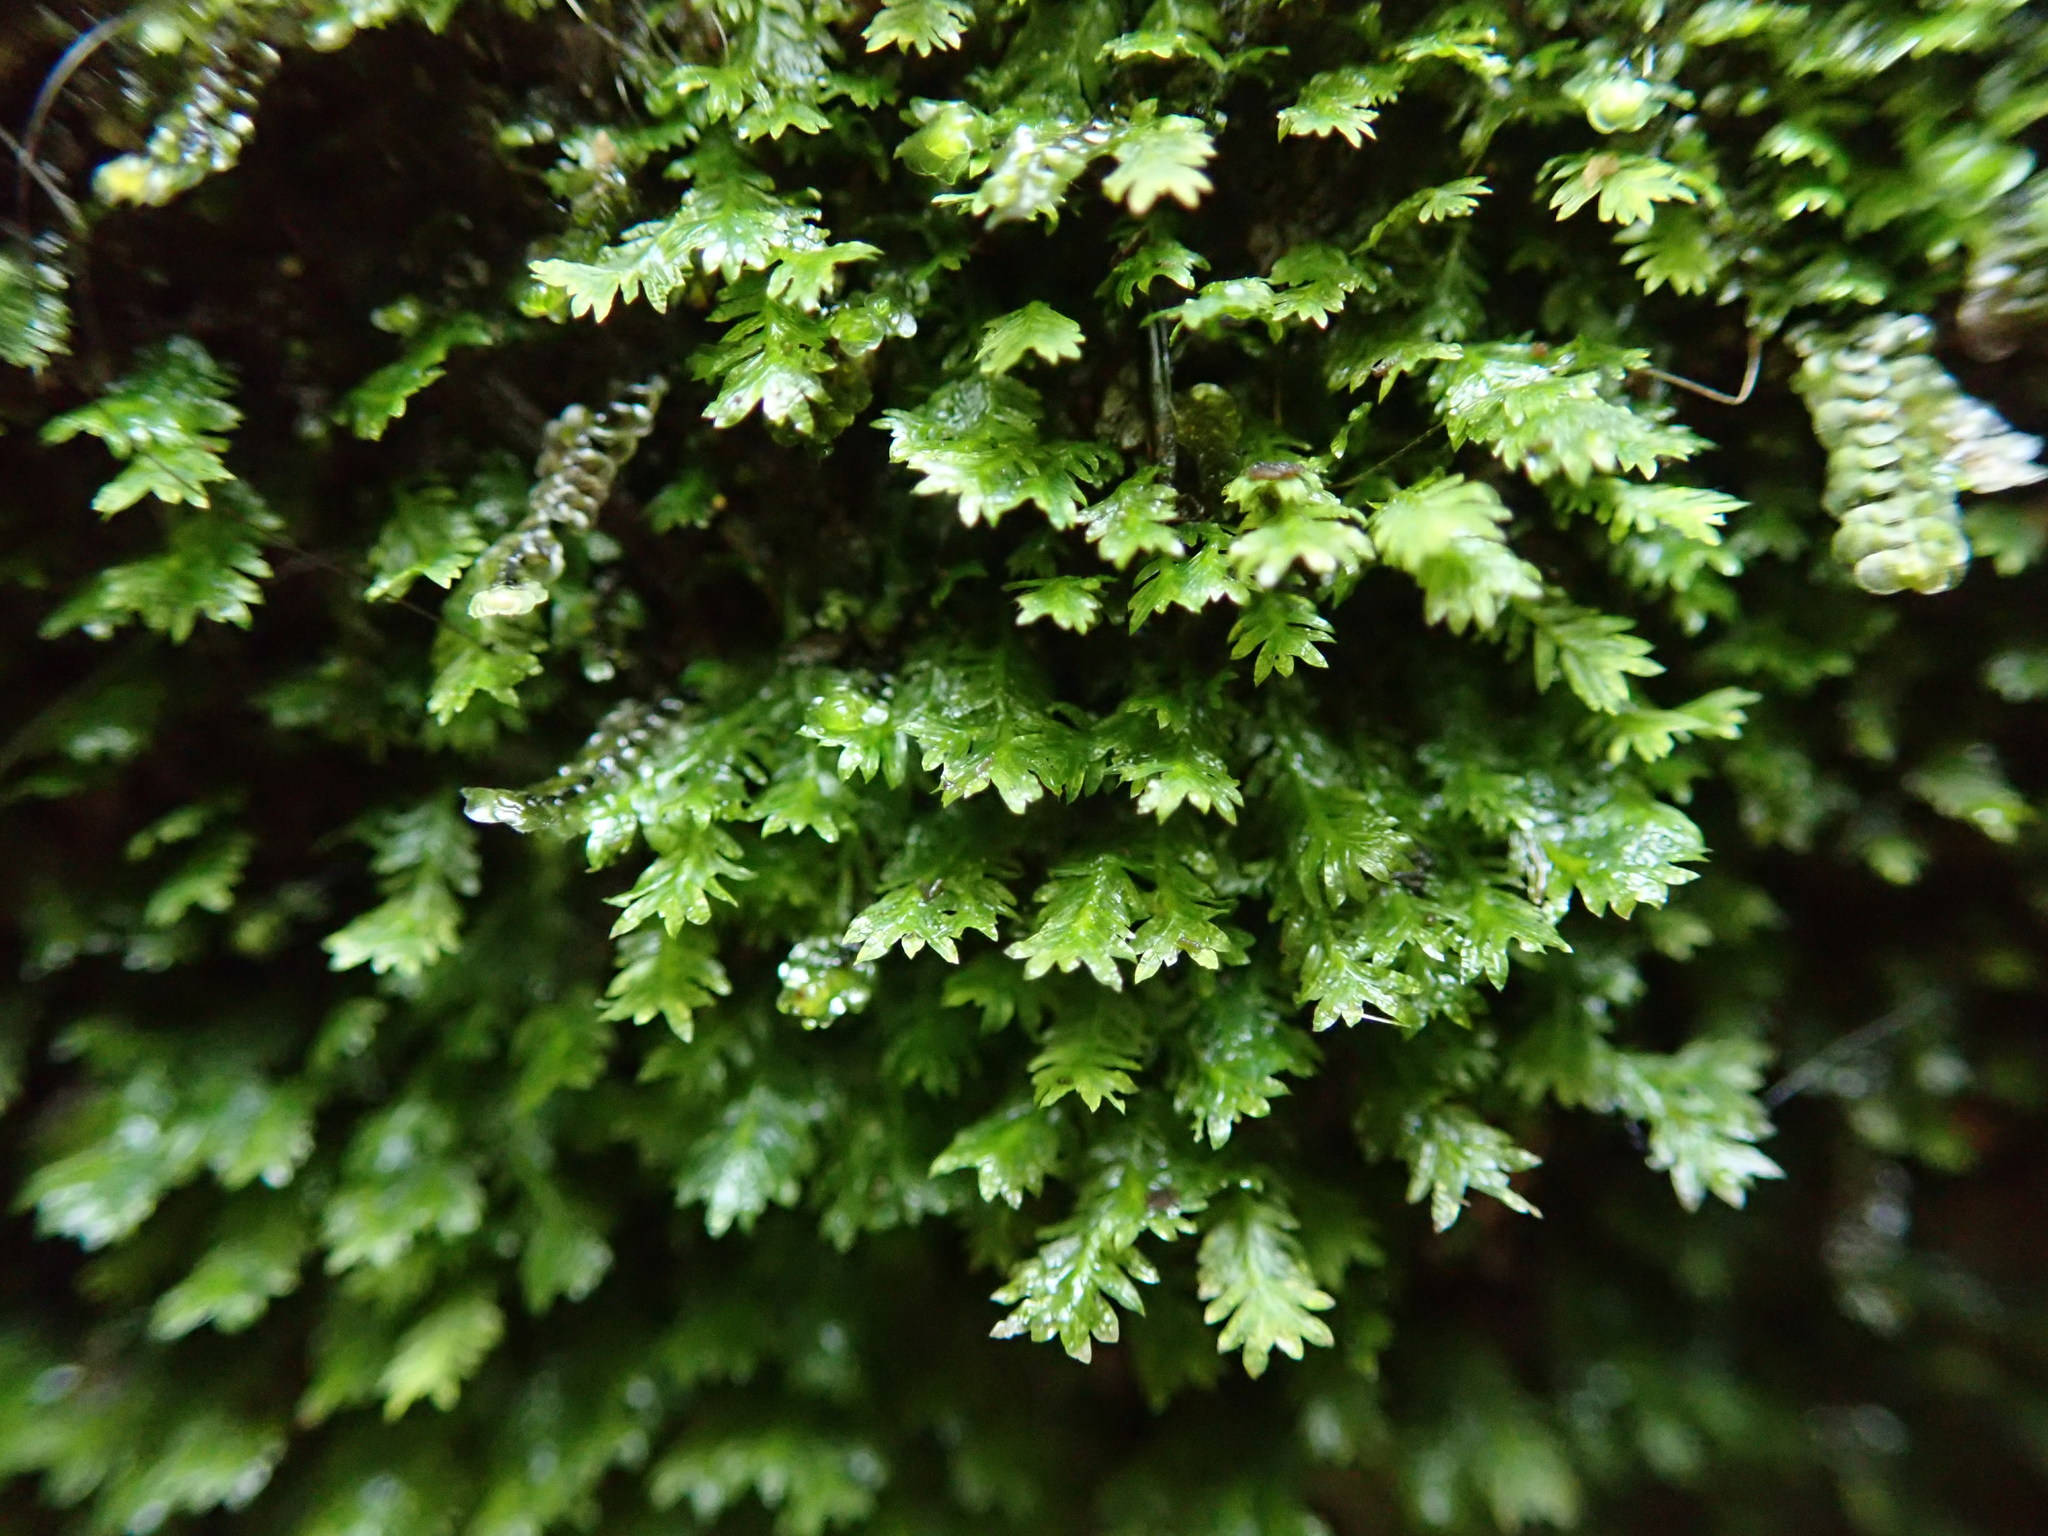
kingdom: Plantae
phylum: Bryophyta
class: Bryopsida
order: Dicranales
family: Fissidentaceae
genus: Fissidens
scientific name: Fissidens
